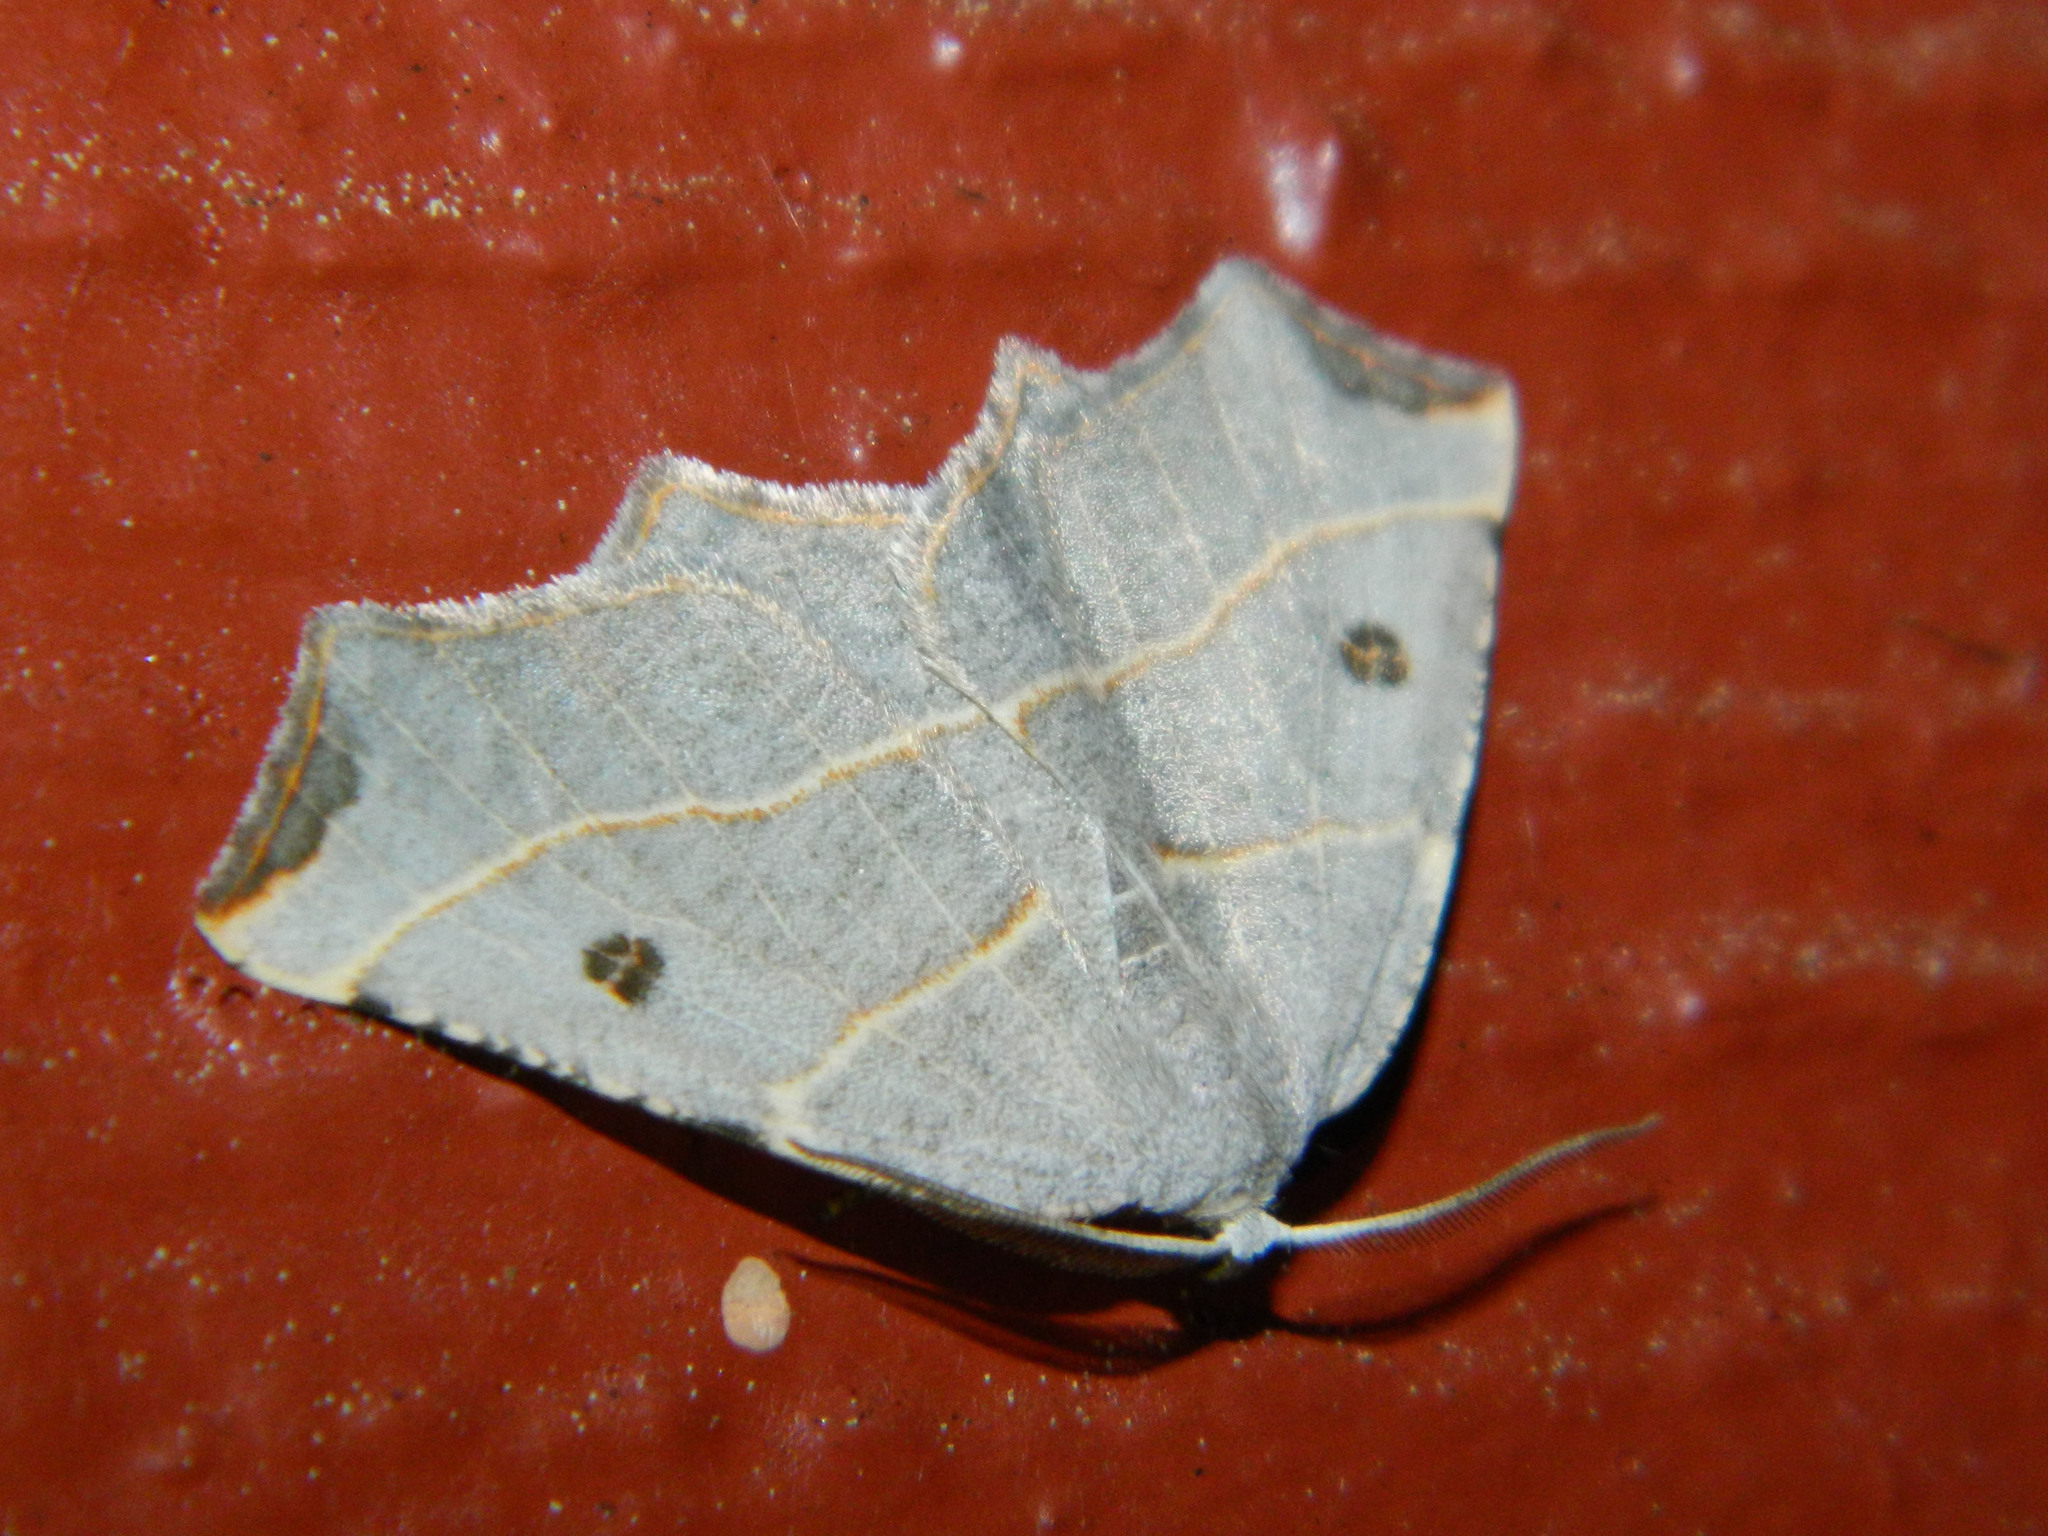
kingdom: Animalia
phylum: Arthropoda
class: Insecta
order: Lepidoptera
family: Geometridae
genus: Metanema
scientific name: Metanema inatomaria
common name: Pale metanema
